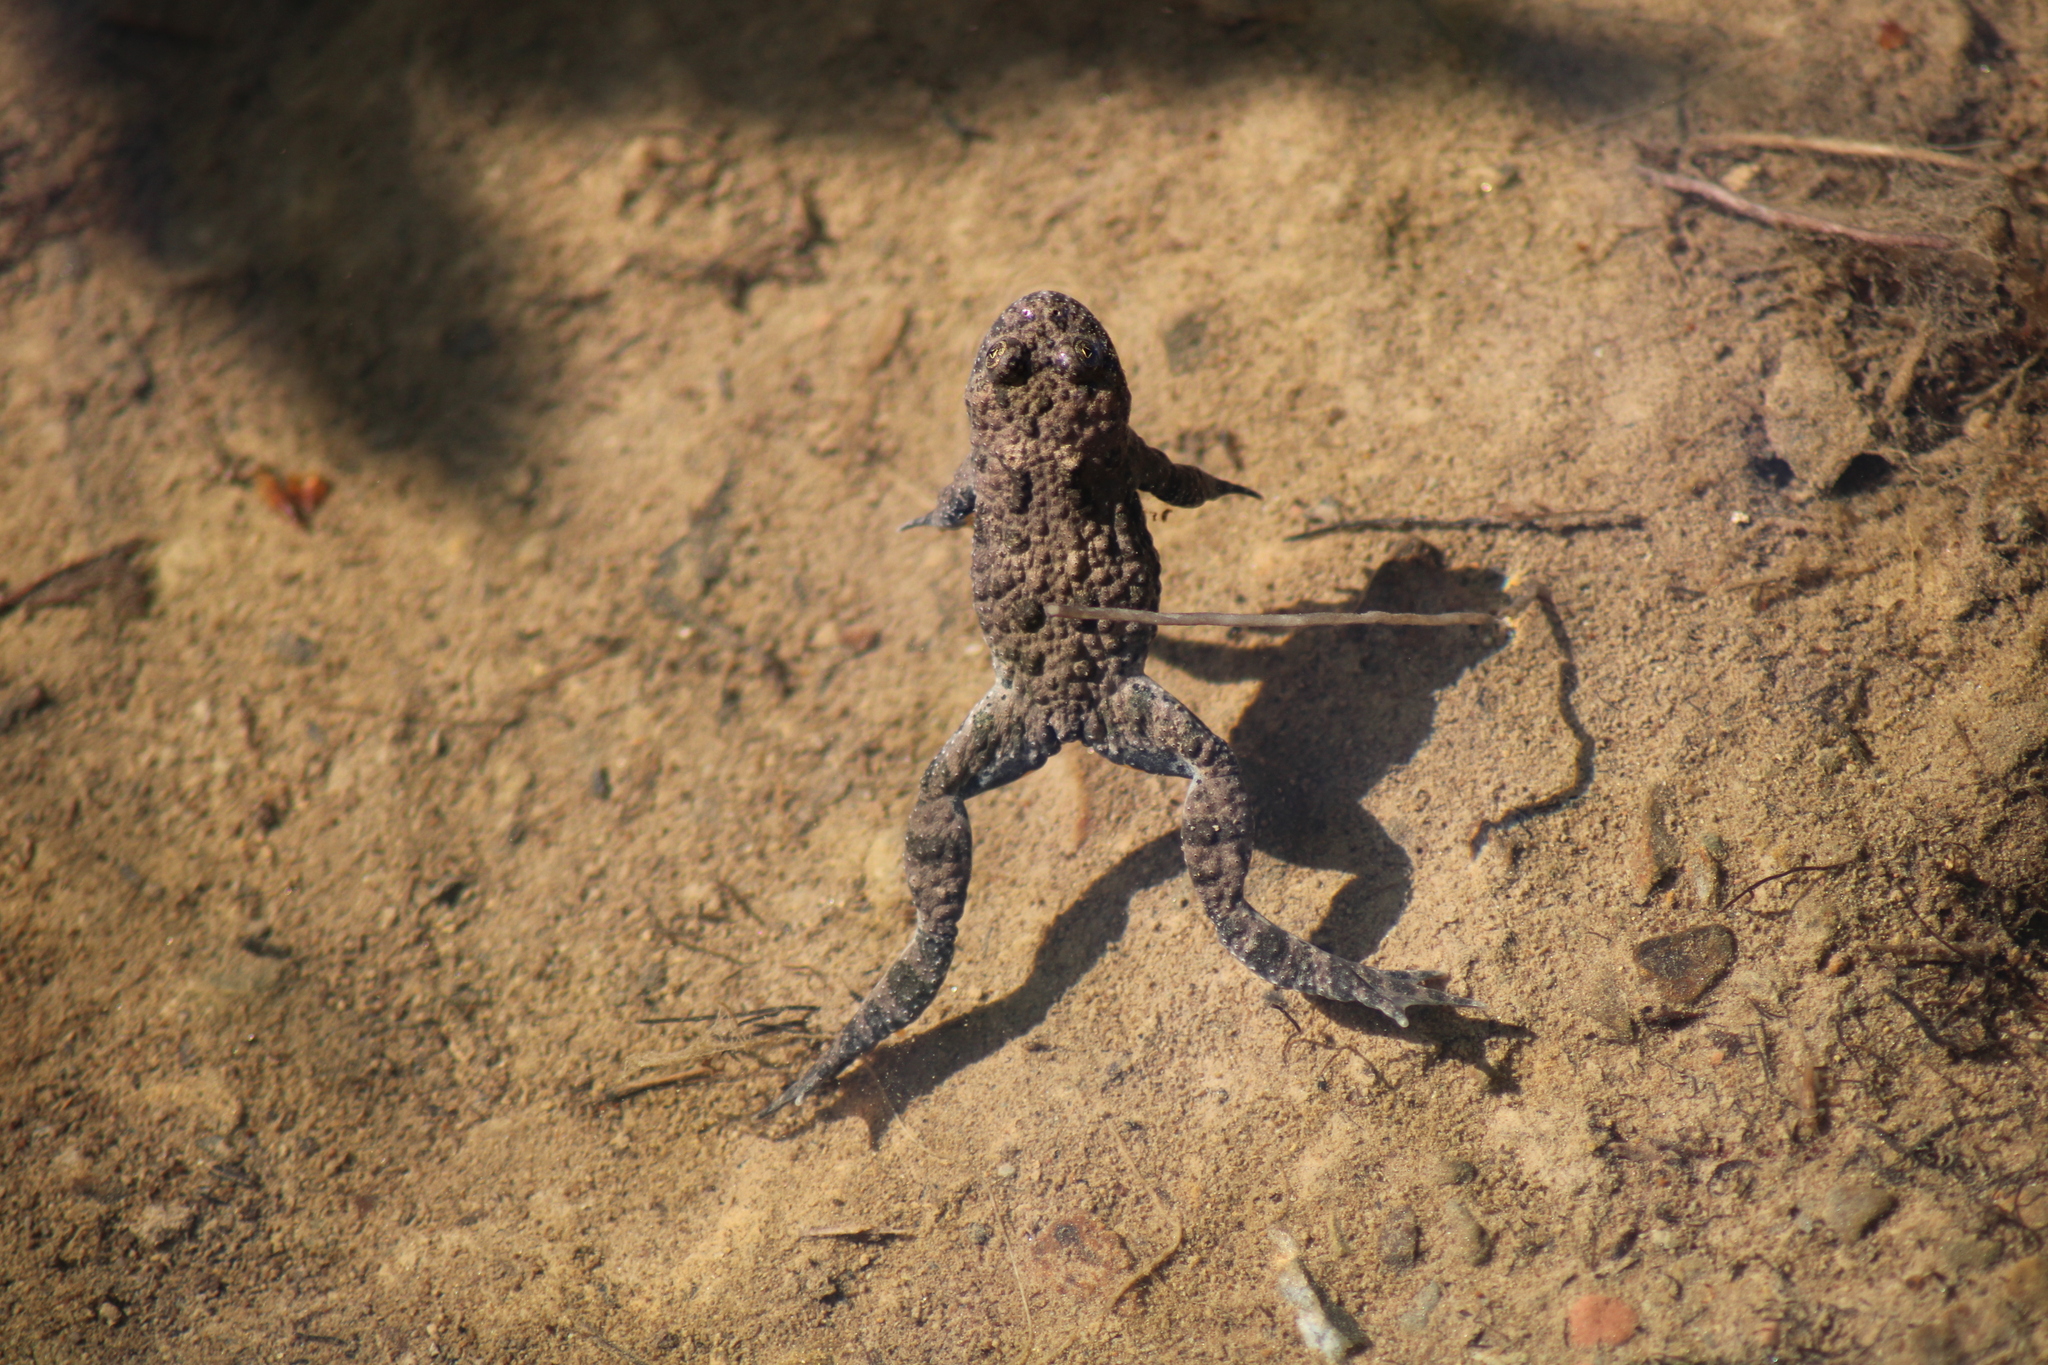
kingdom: Animalia
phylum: Chordata
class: Amphibia
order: Anura
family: Bombinatoridae
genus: Bombina
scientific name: Bombina variegata
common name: Yellow-bellied toad
